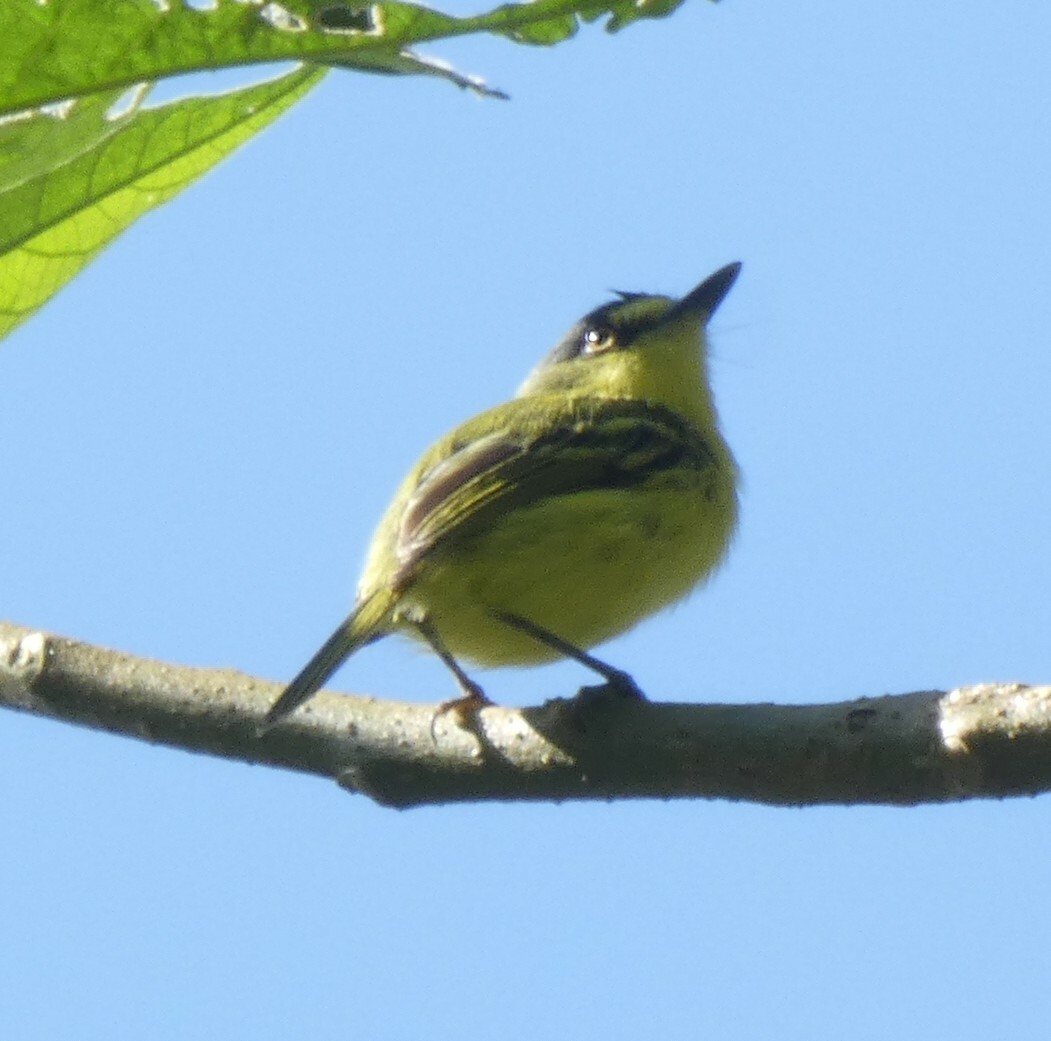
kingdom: Animalia
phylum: Chordata
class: Aves
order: Passeriformes
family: Tyrannidae
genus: Todirostrum
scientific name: Todirostrum poliocephalum
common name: Yellow-lored tody-flycatcher
